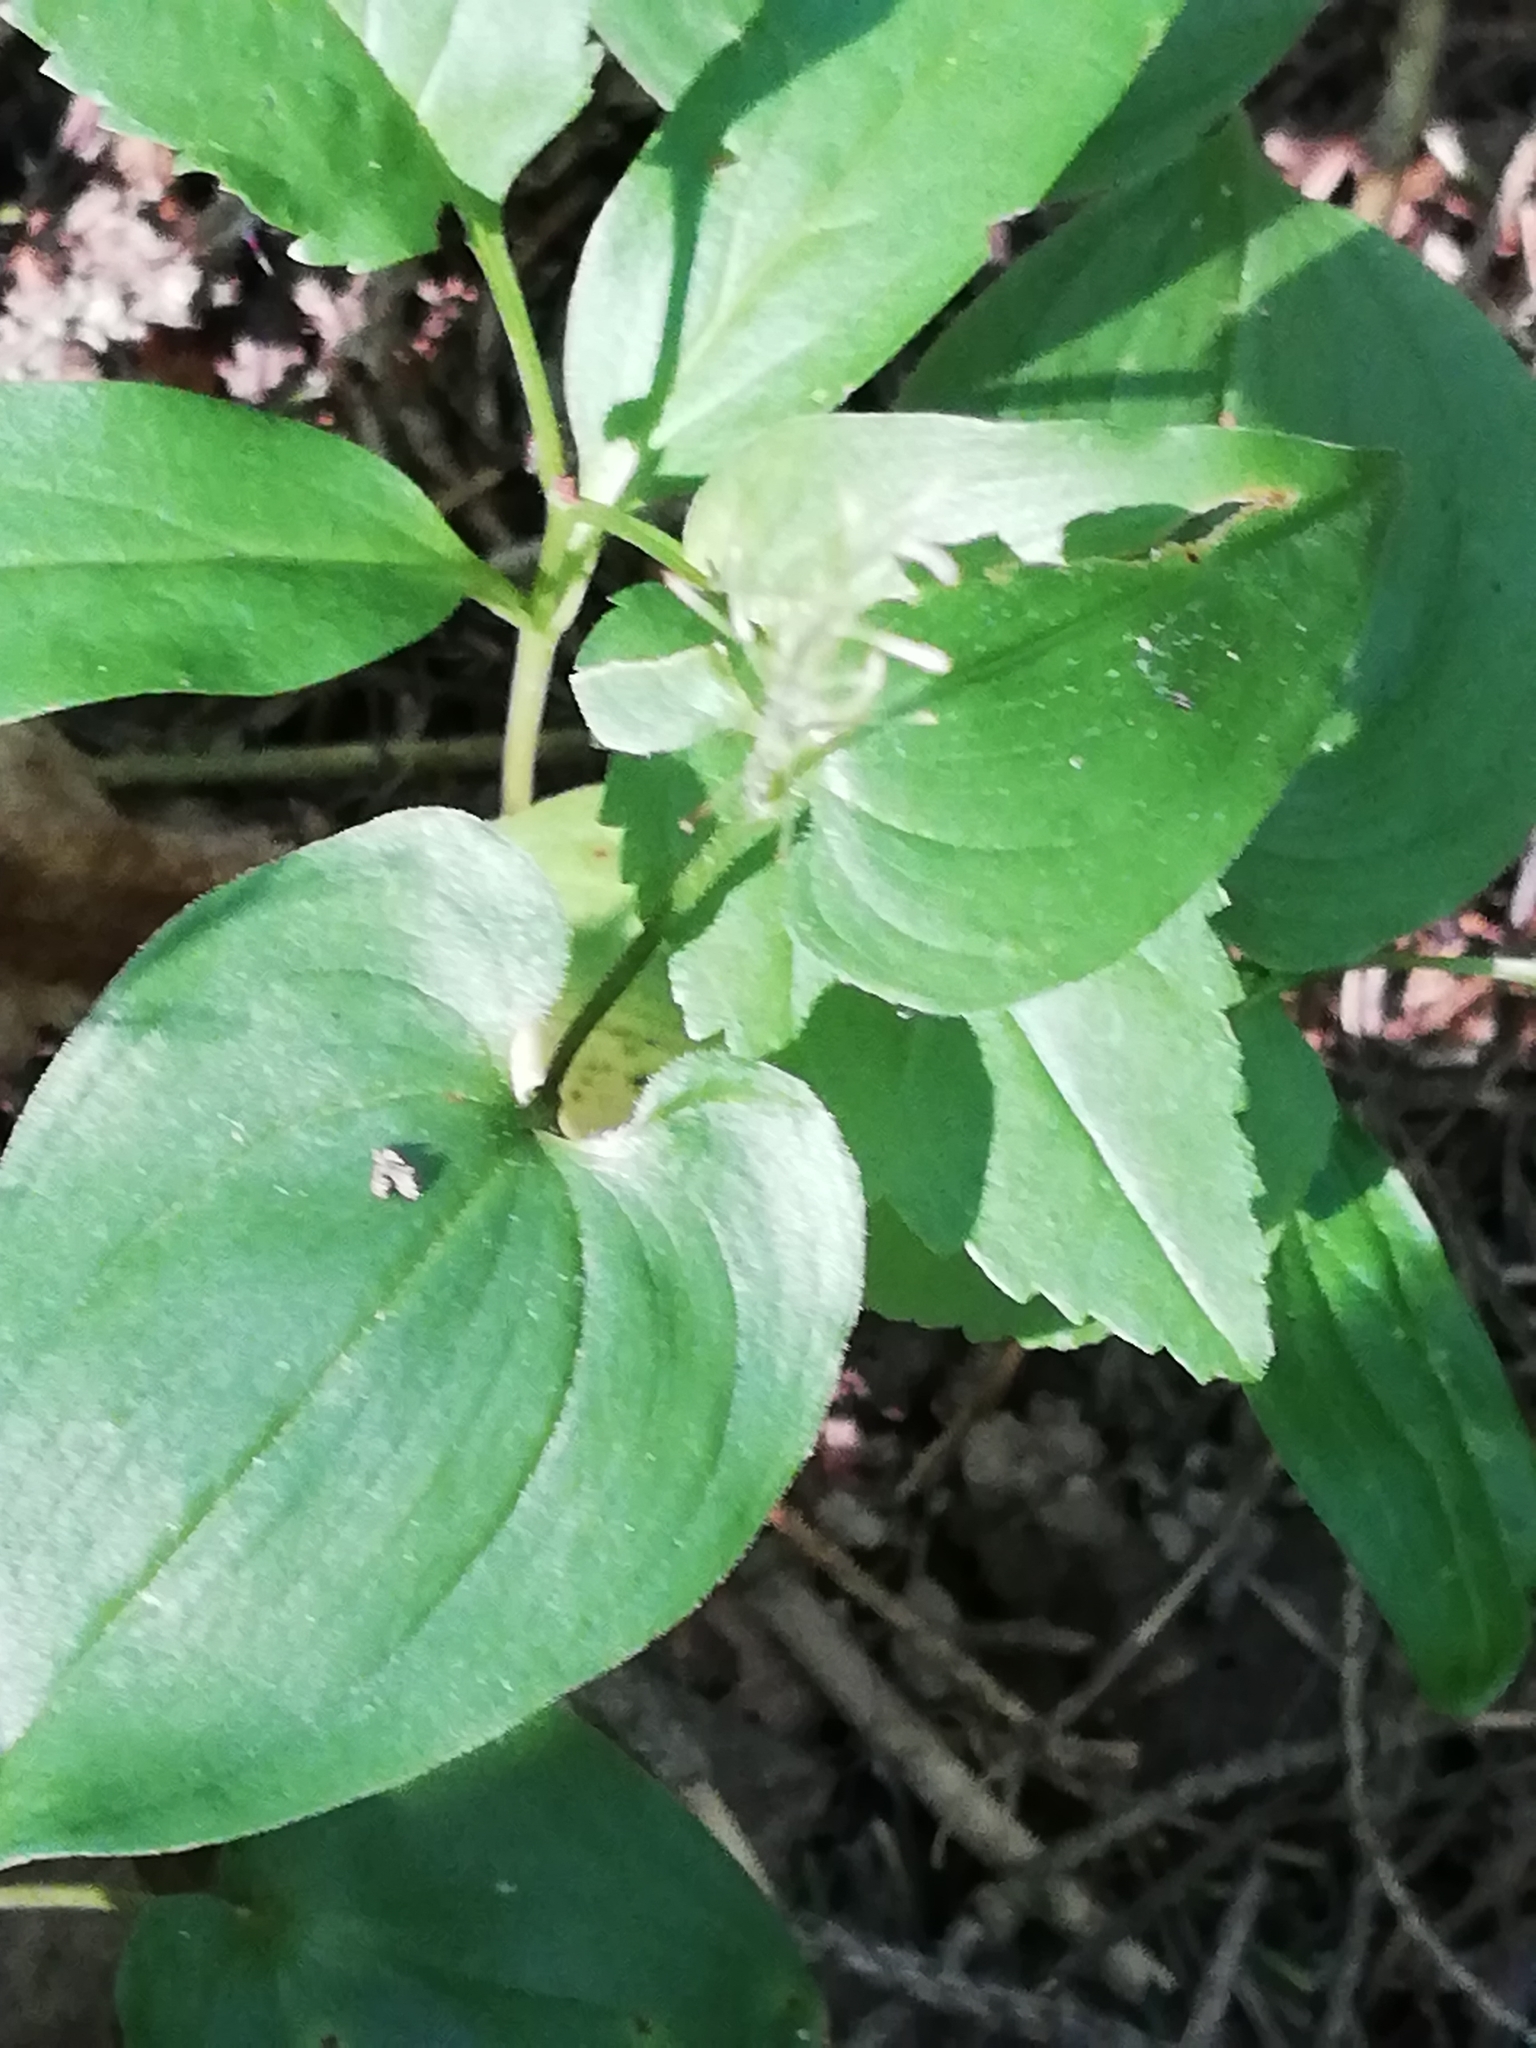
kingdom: Plantae
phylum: Tracheophyta
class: Liliopsida
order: Asparagales
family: Asparagaceae
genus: Maianthemum
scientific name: Maianthemum bifolium
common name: May lily
